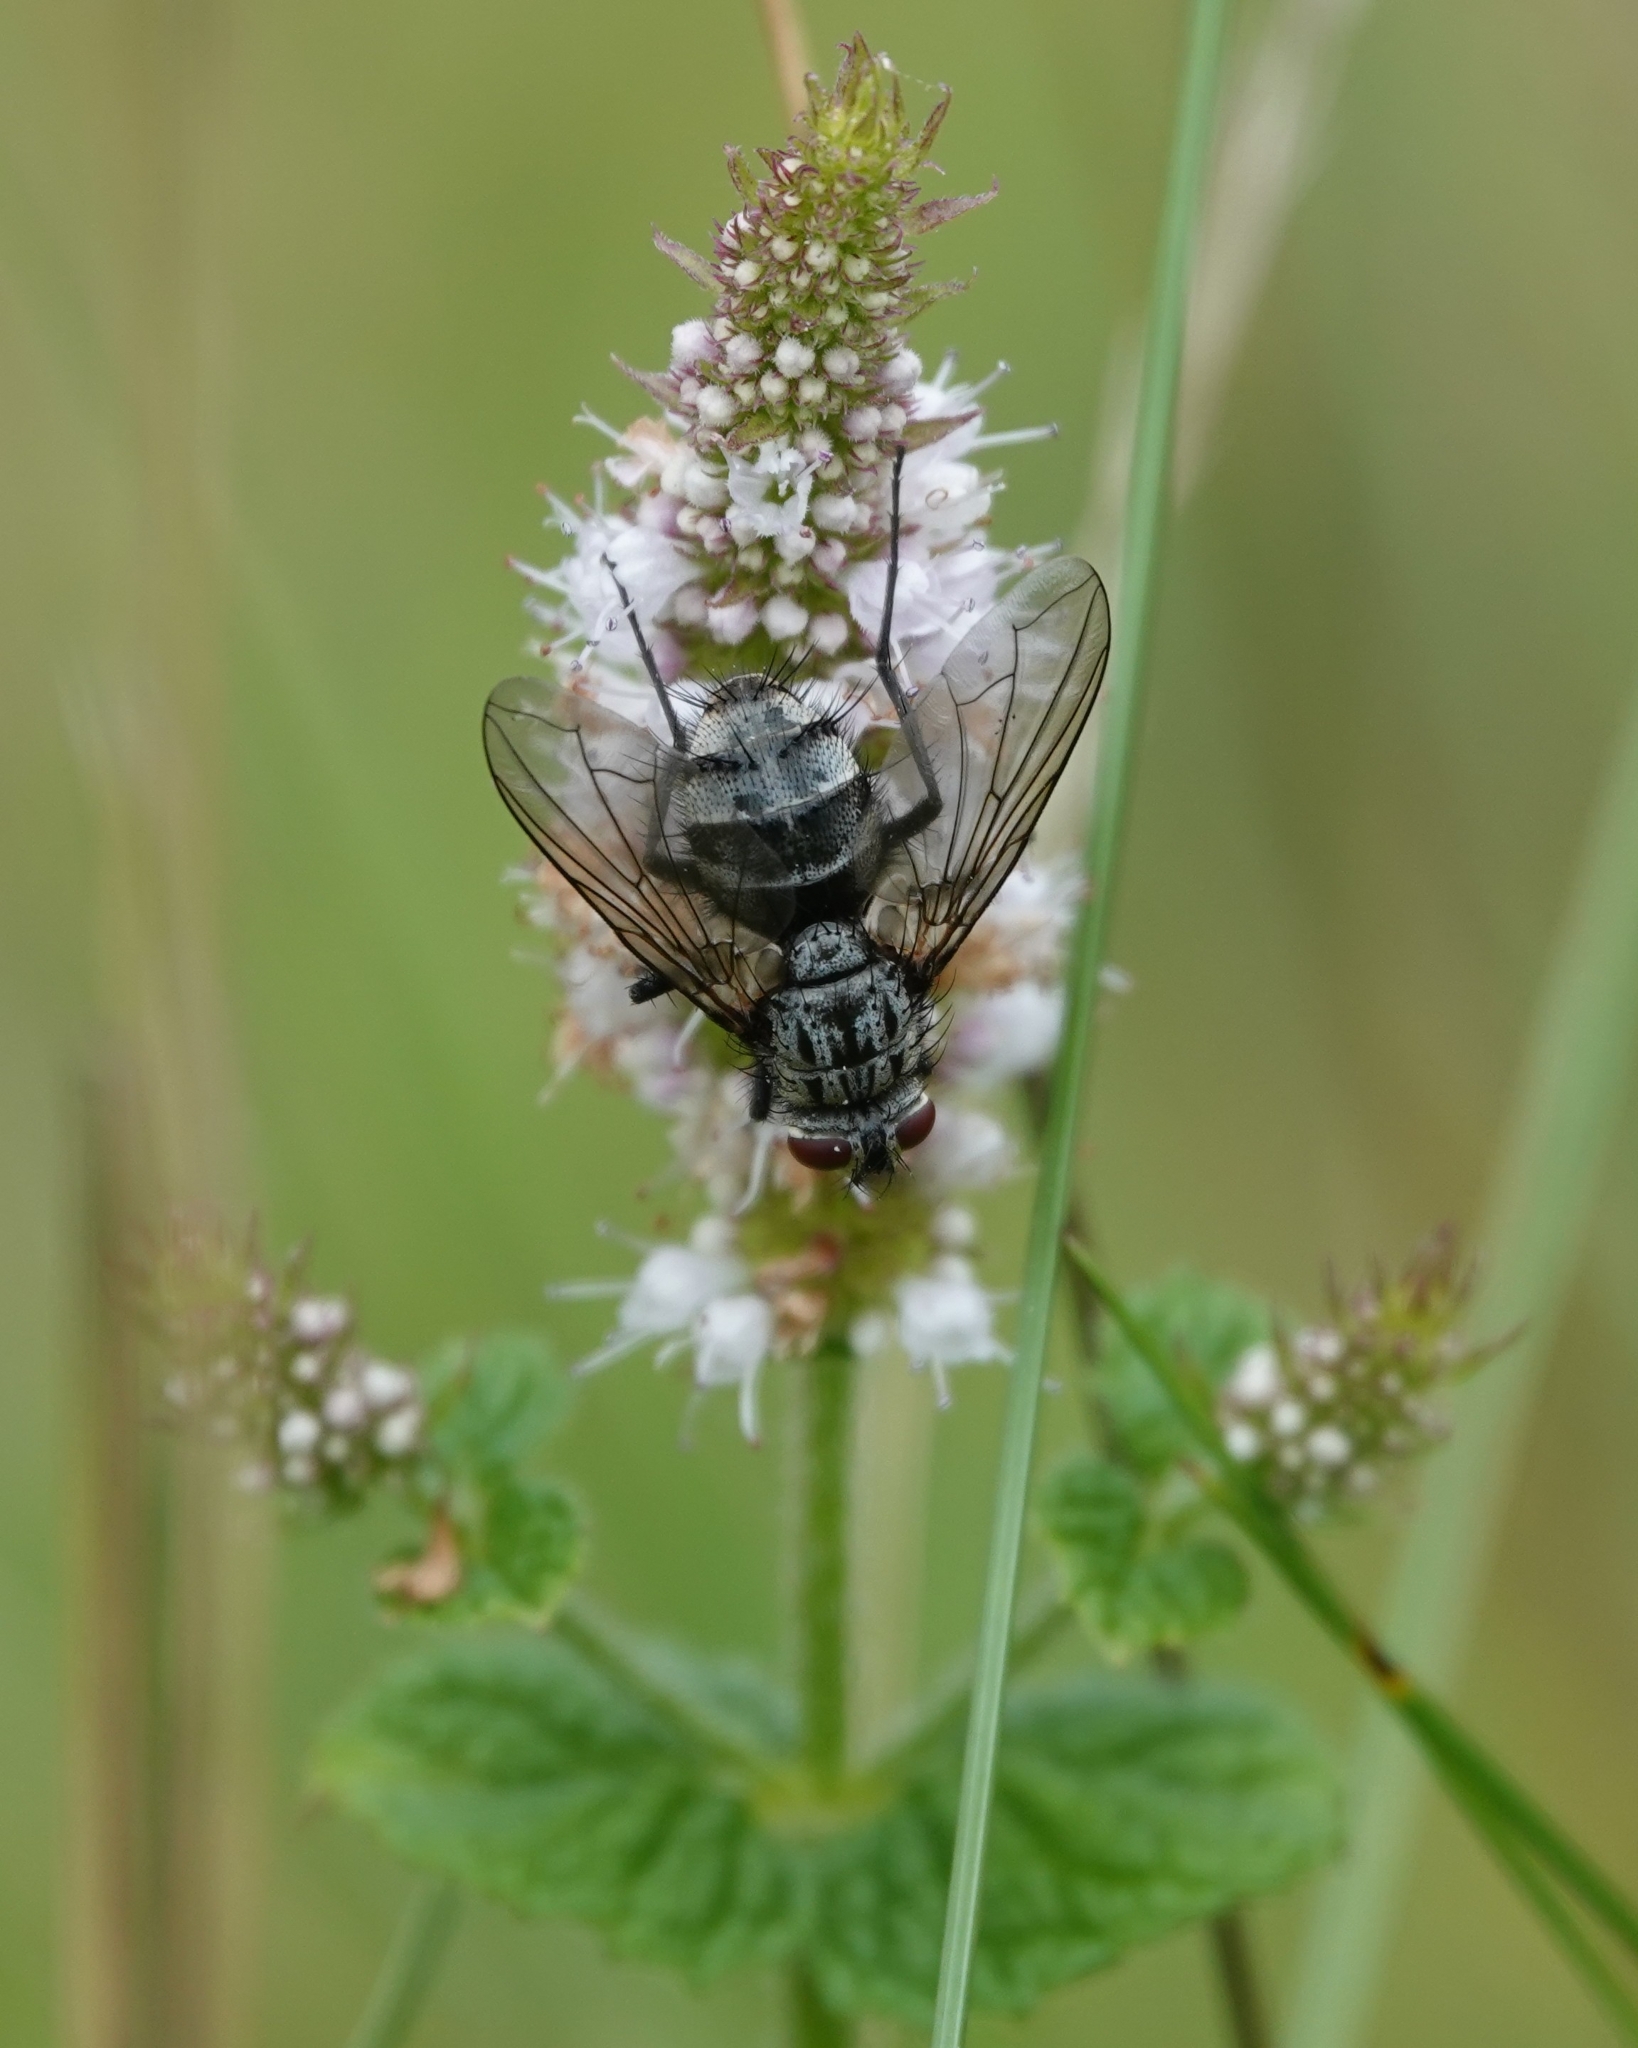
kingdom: Animalia
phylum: Arthropoda
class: Insecta
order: Diptera
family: Tachinidae
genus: Dinera
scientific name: Dinera ferina
